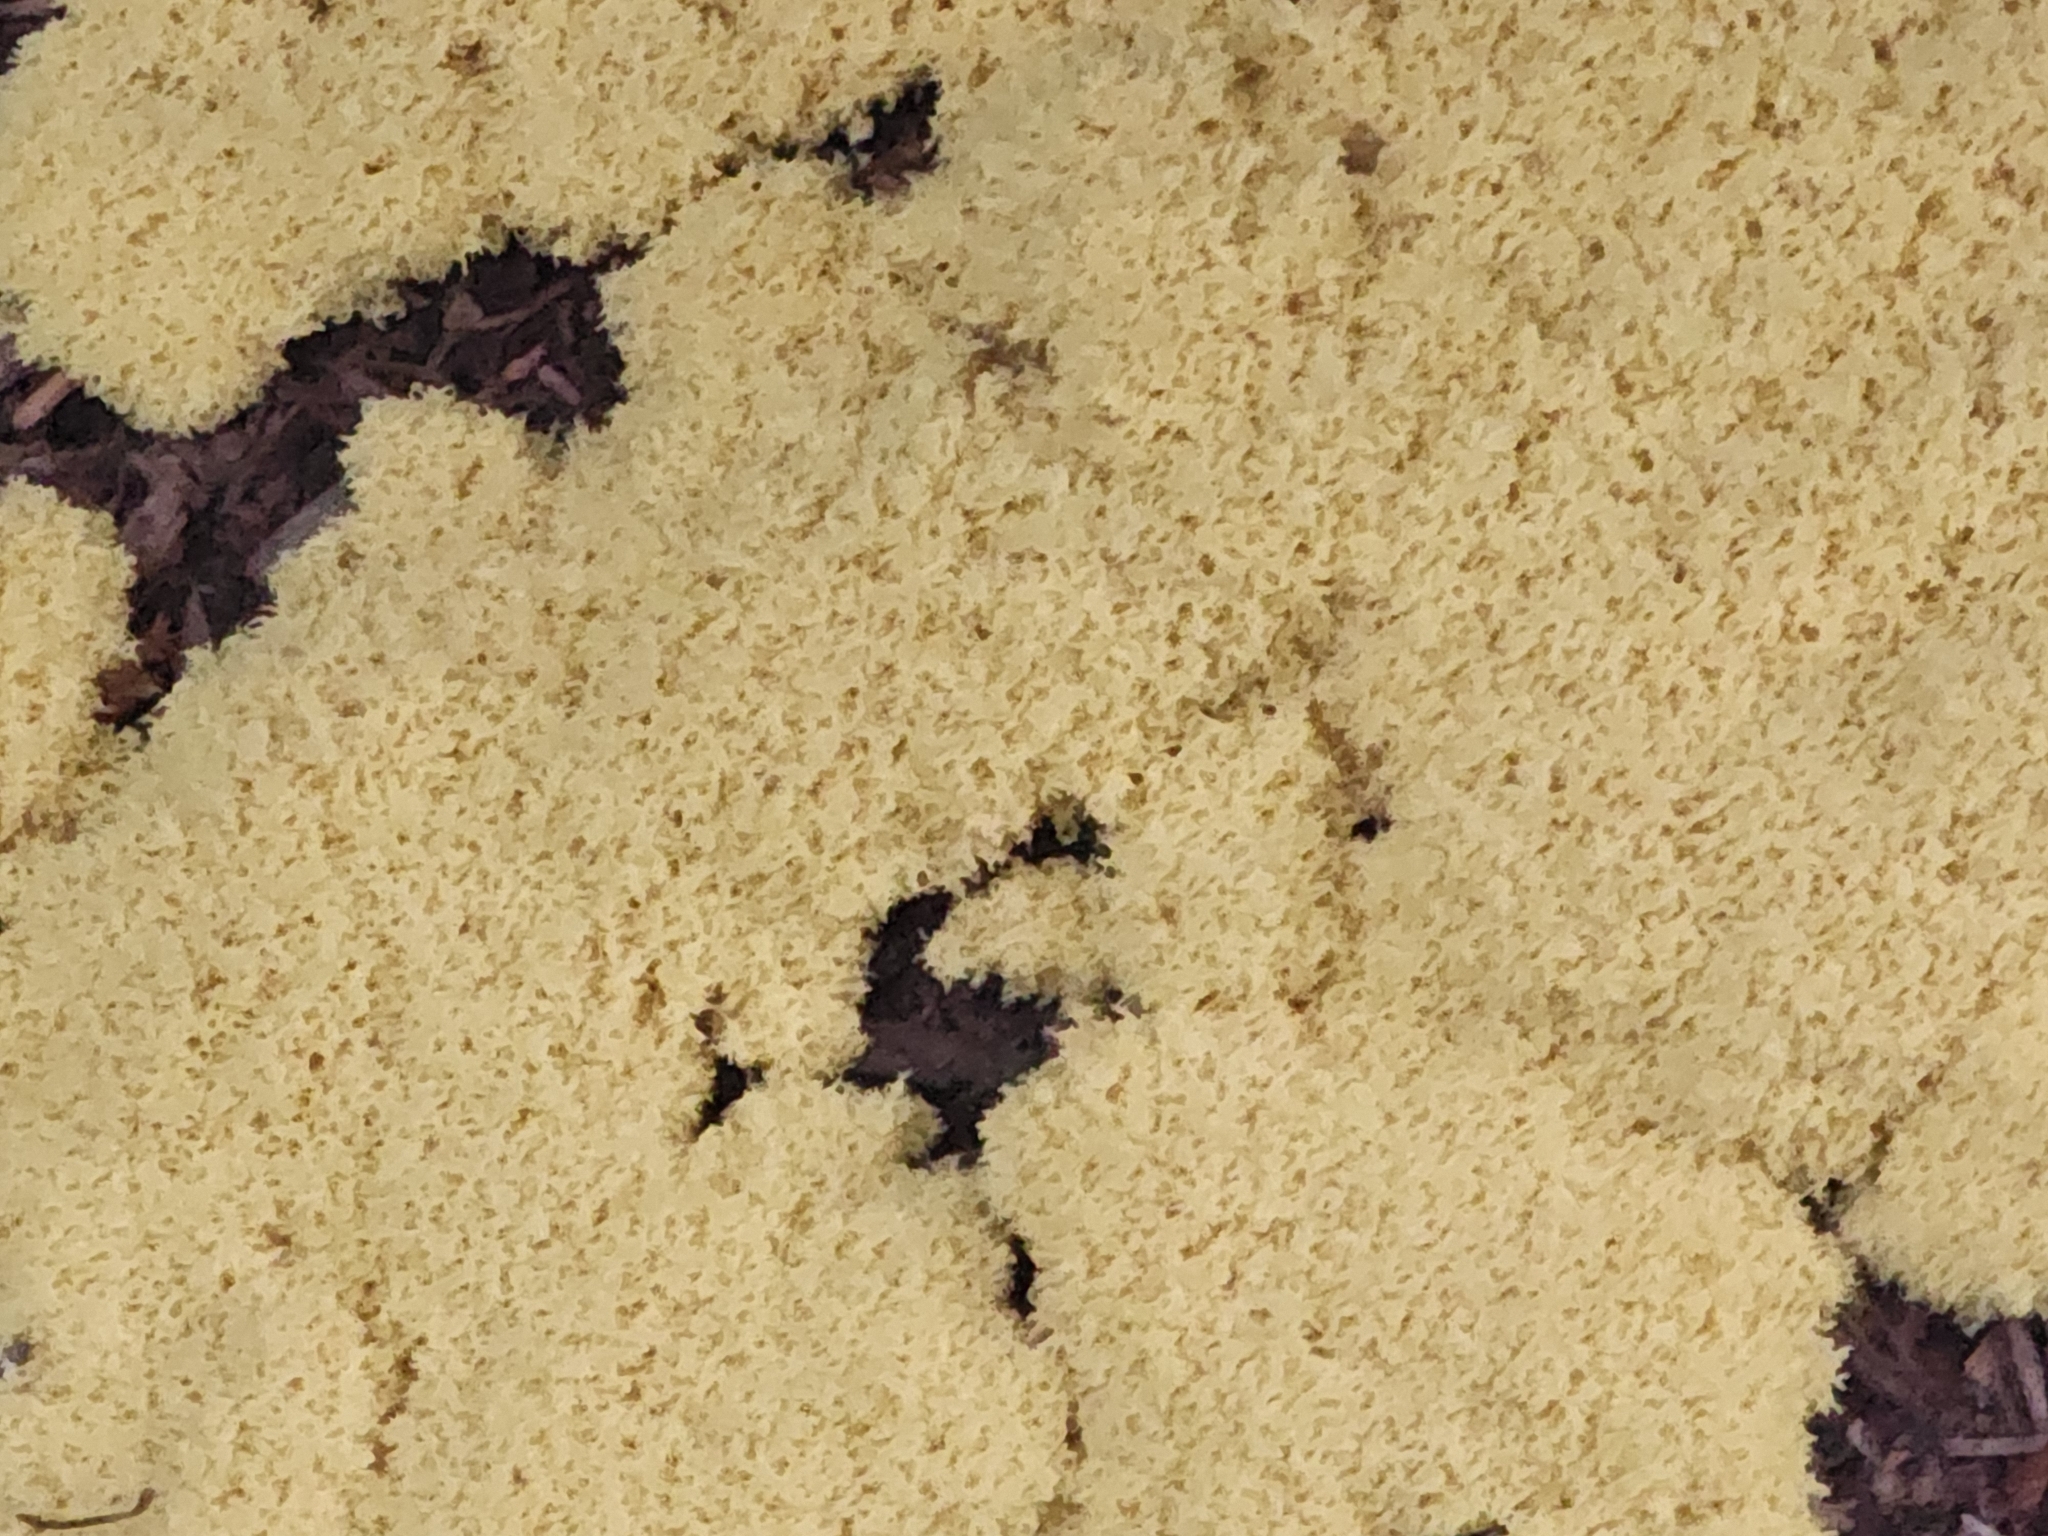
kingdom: Protozoa
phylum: Mycetozoa
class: Myxomycetes
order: Physarales
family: Physaraceae
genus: Fuligo
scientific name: Fuligo septica
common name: Dog vomit slime mold
